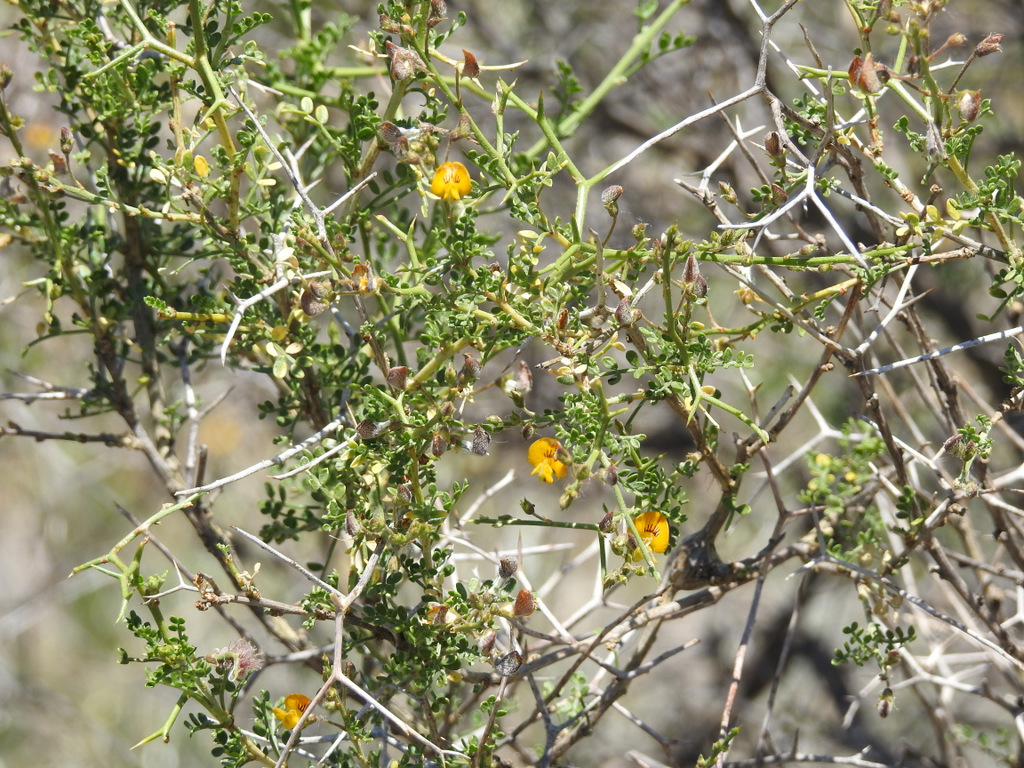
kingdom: Plantae
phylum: Tracheophyta
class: Magnoliopsida
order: Fabales
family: Fabaceae
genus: Adesmia
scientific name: Adesmia trijuga
